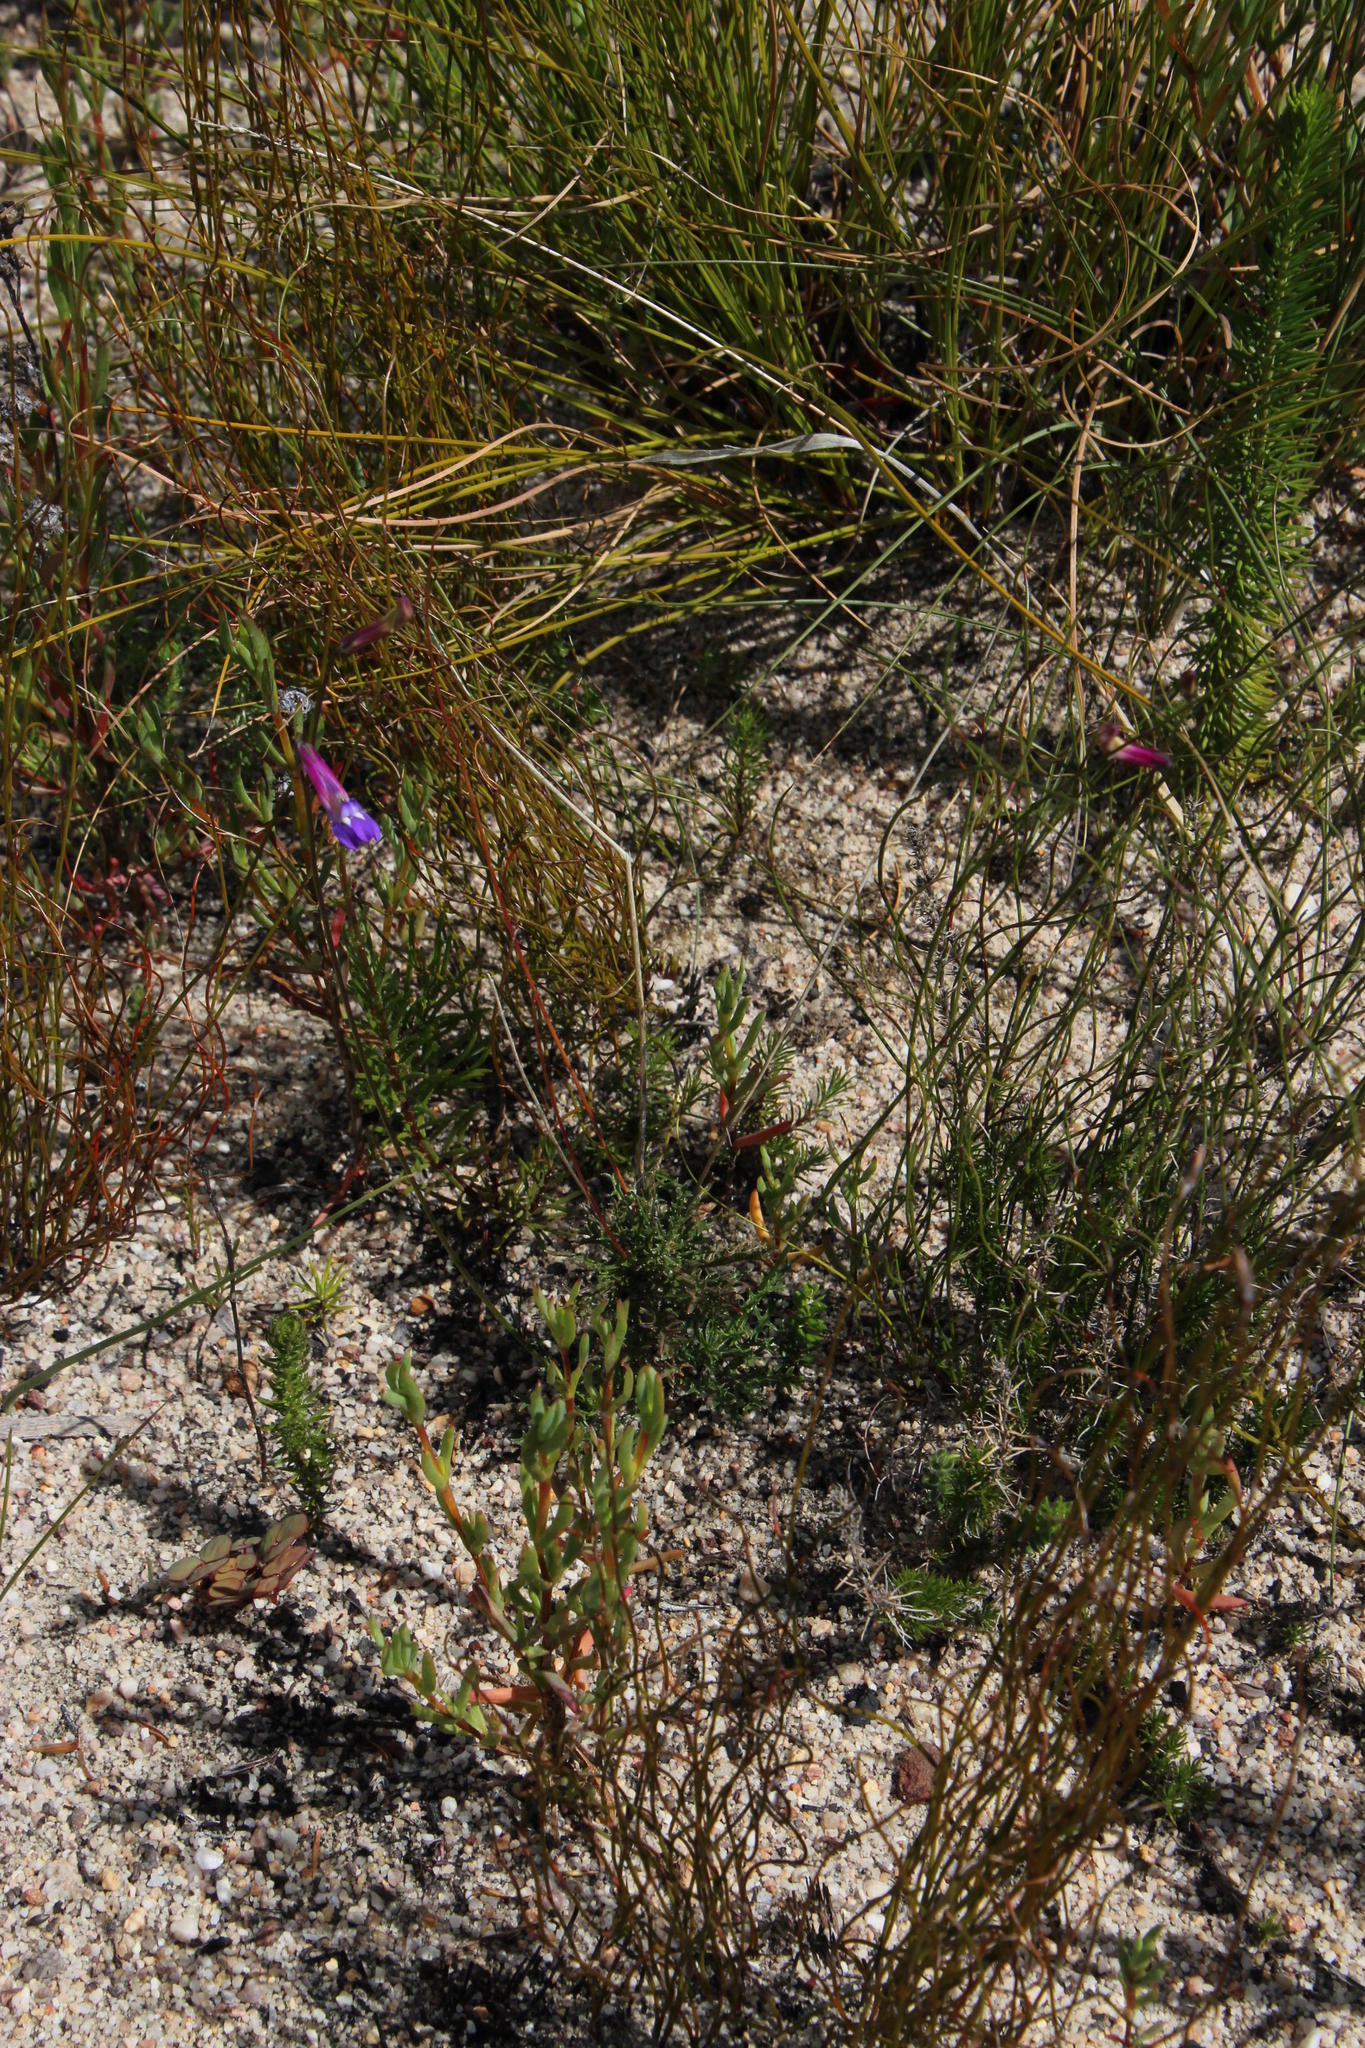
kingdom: Plantae
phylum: Tracheophyta
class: Magnoliopsida
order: Asterales
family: Campanulaceae
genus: Lobelia
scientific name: Lobelia coronopifolia
